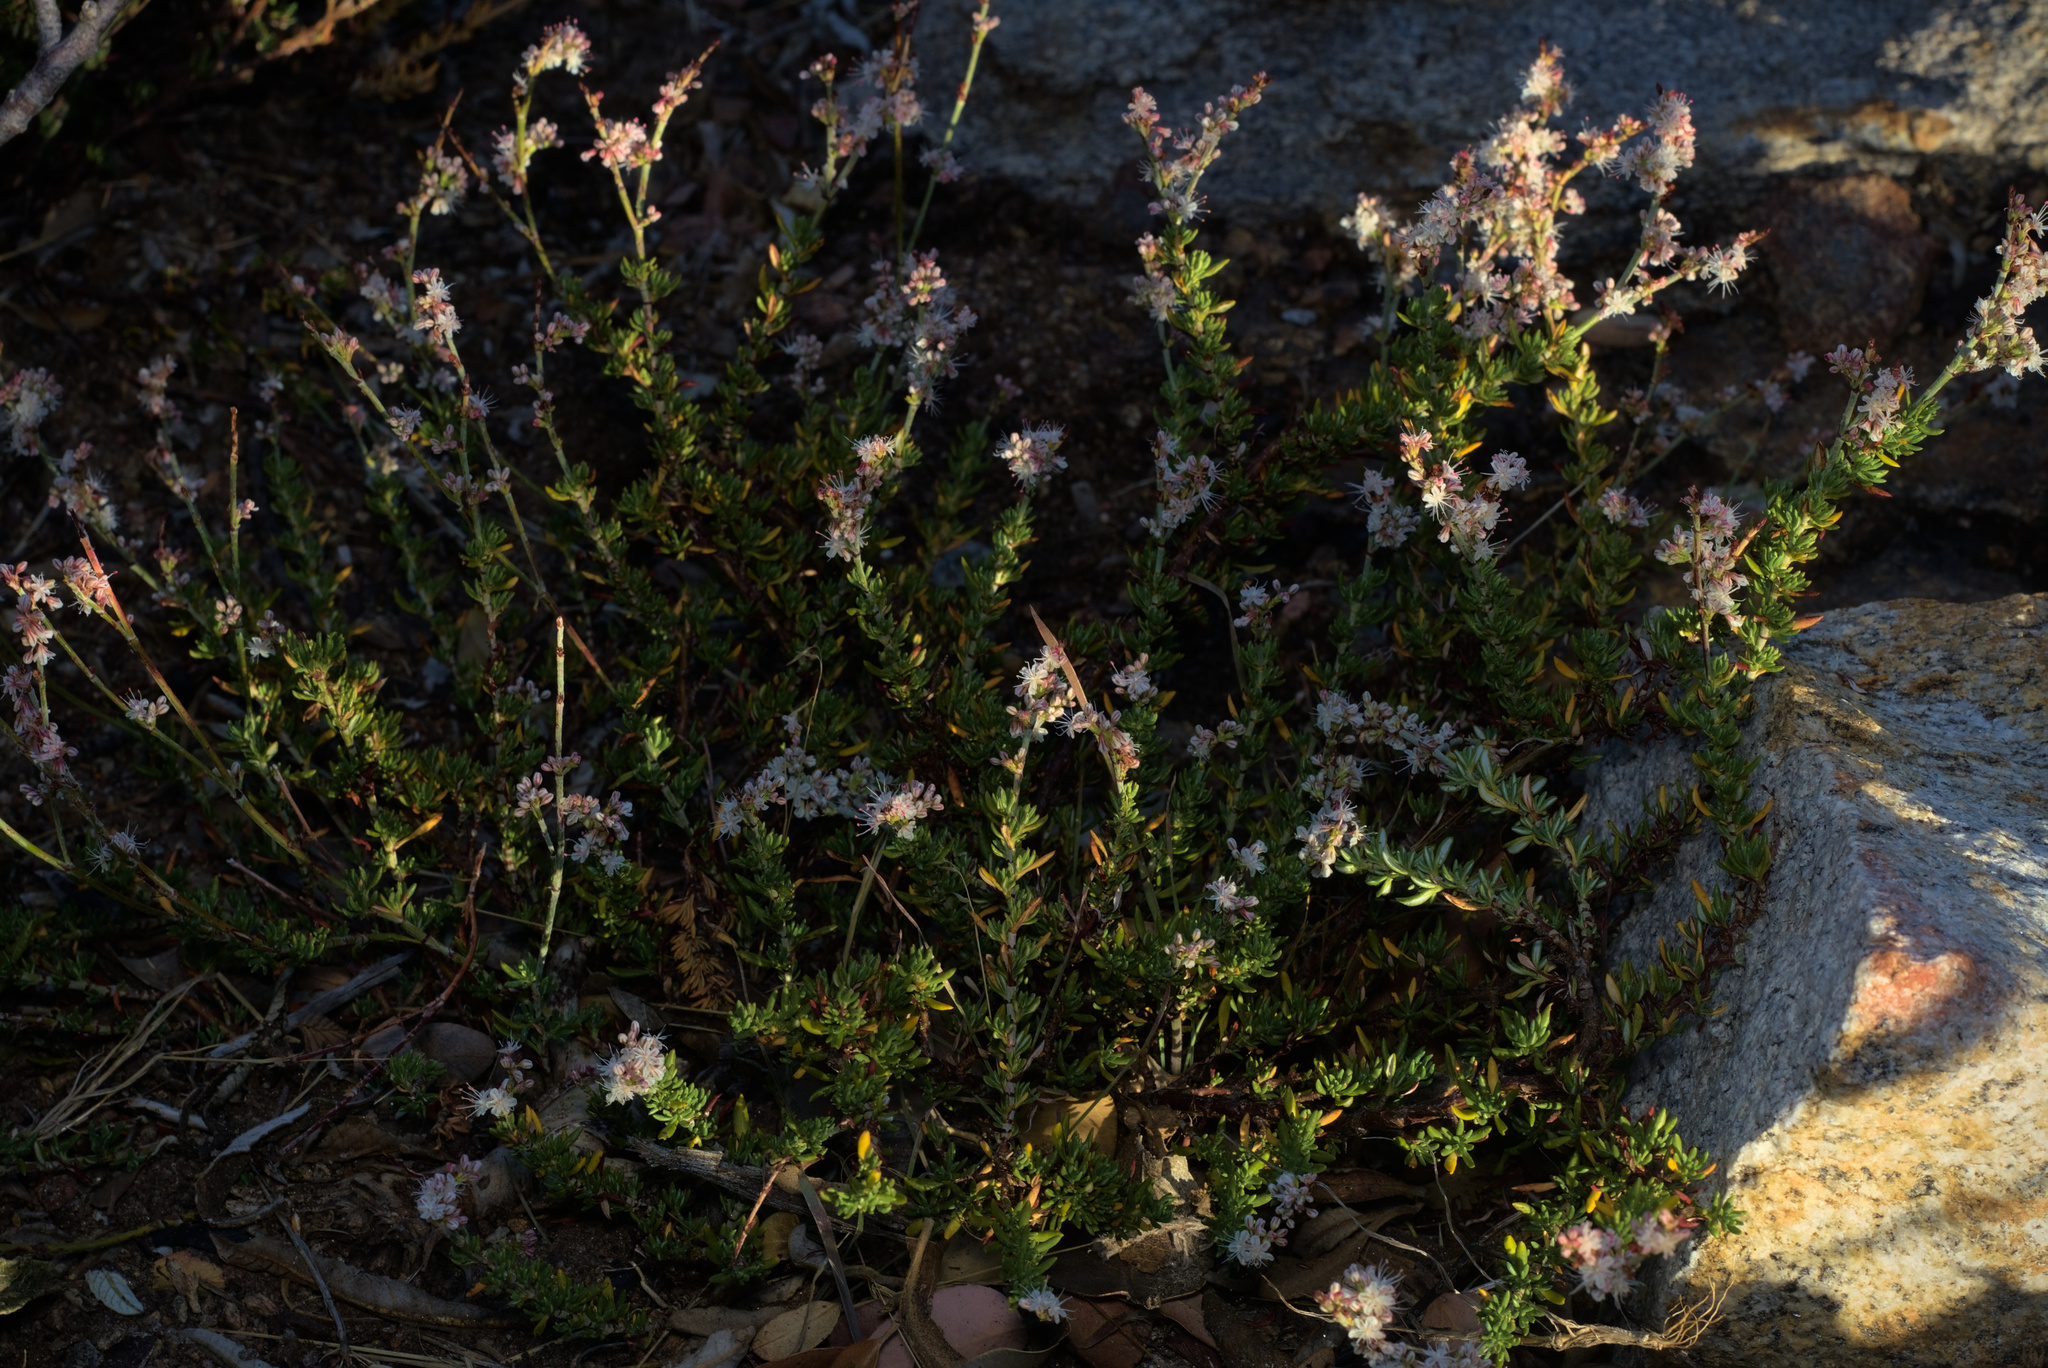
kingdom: Plantae
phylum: Tracheophyta
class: Magnoliopsida
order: Caryophyllales
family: Polygonaceae
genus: Eriogonum
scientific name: Eriogonum wrightii
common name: Bastard-sage
